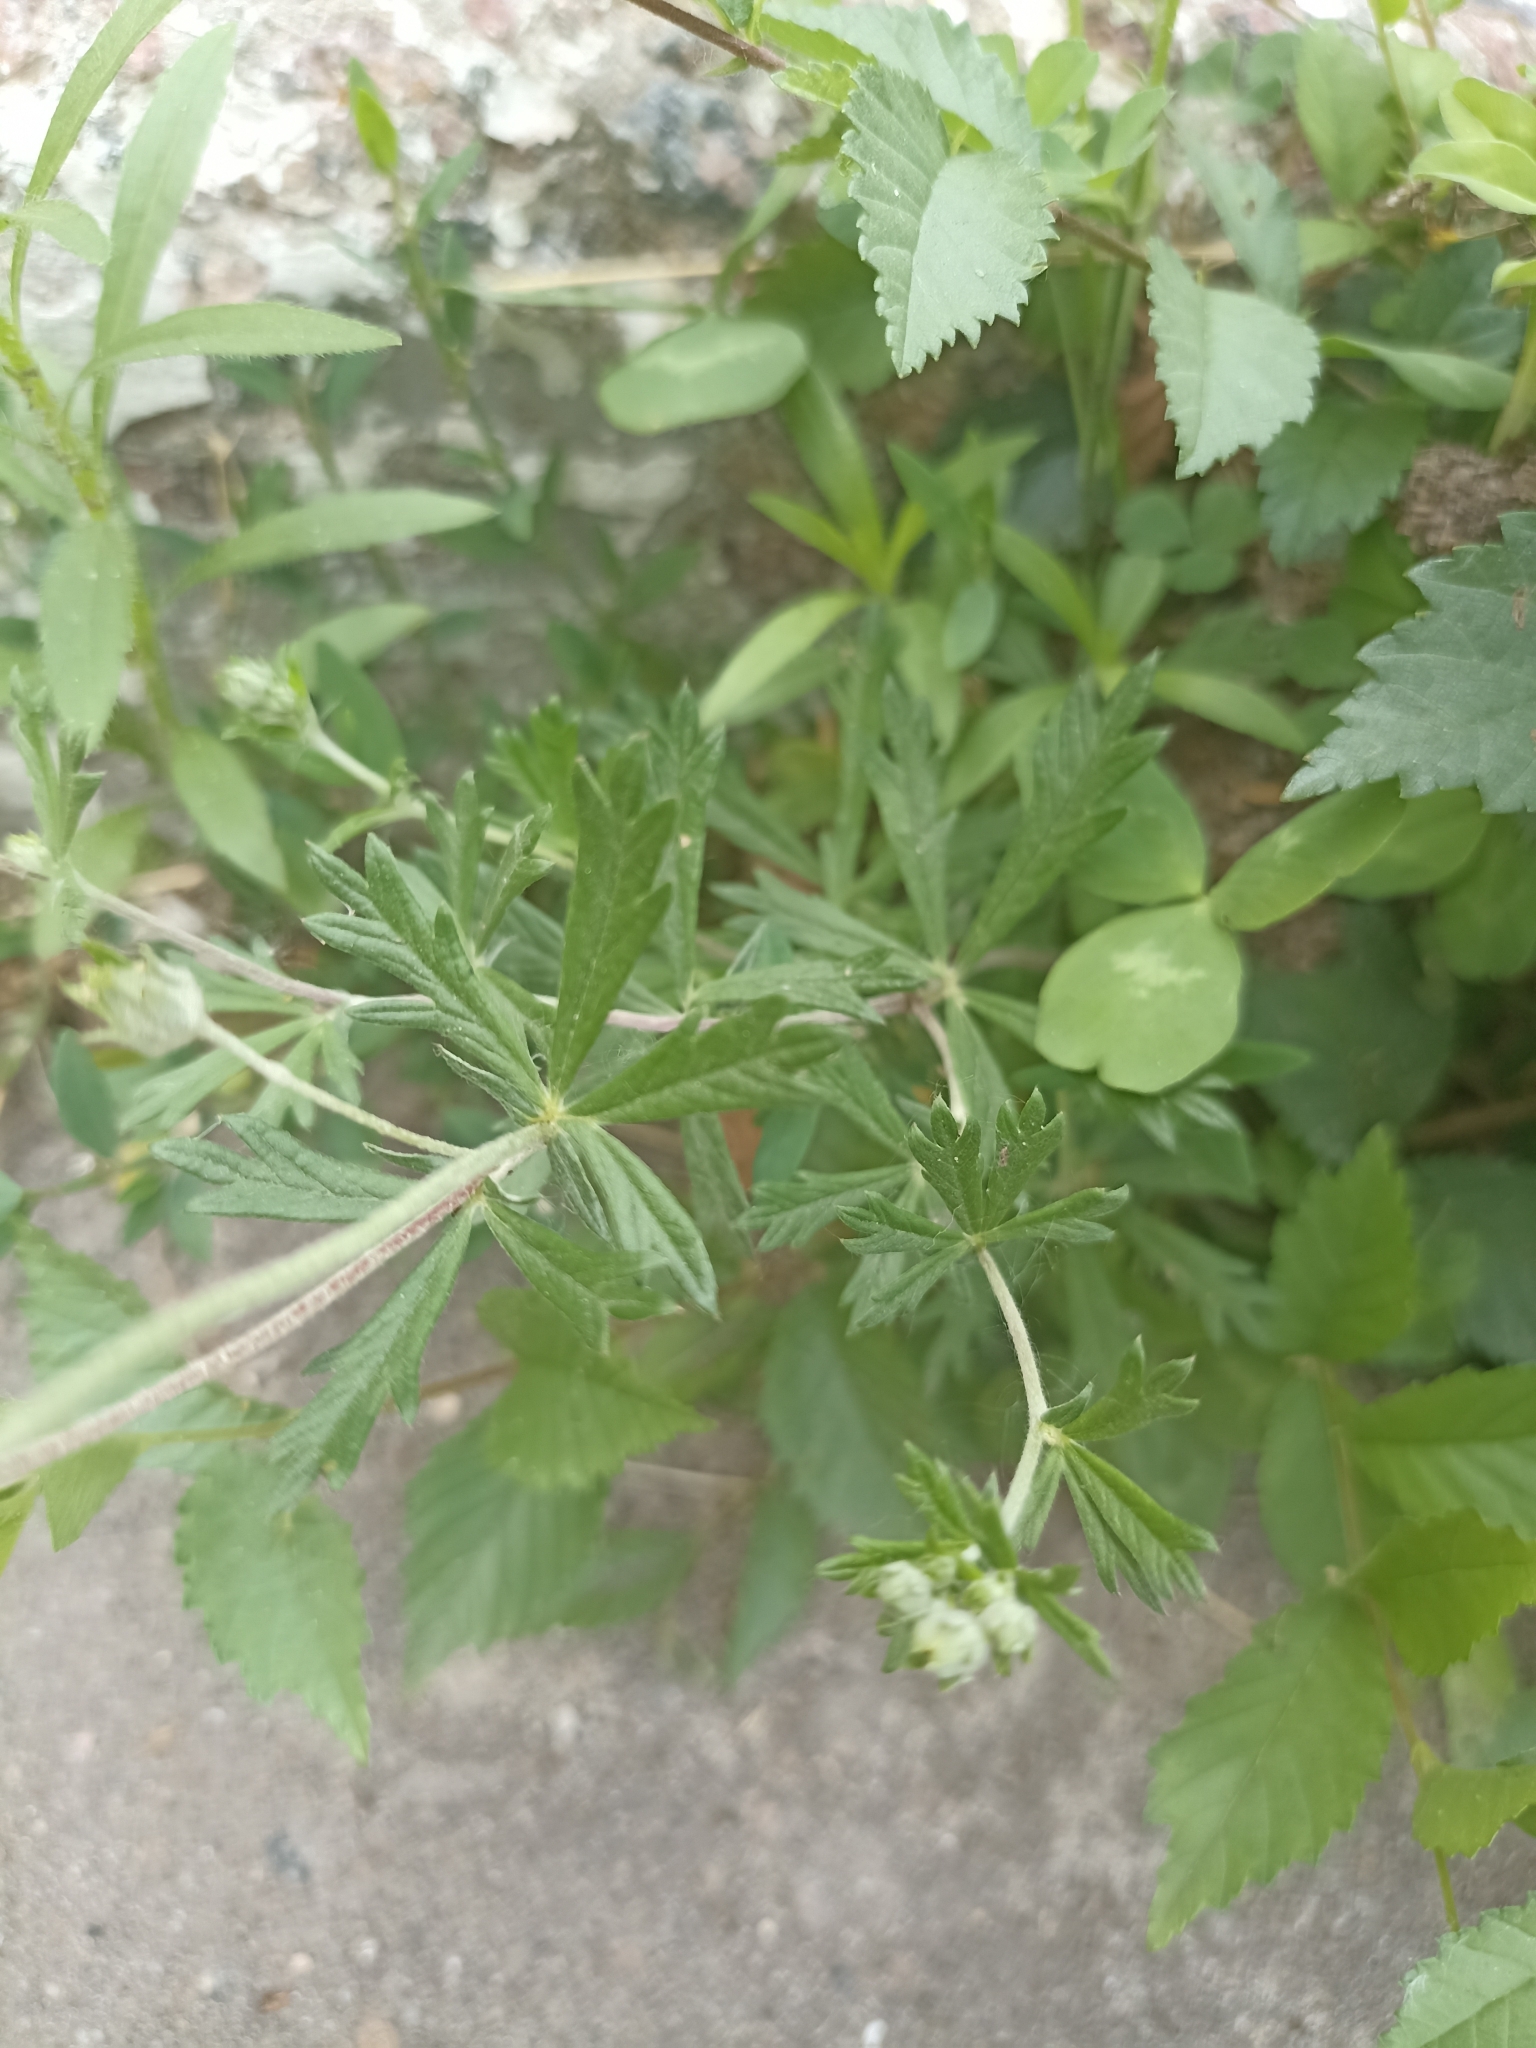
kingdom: Plantae
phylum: Tracheophyta
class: Magnoliopsida
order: Rosales
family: Rosaceae
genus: Potentilla
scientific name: Potentilla argentea
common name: Hoary cinquefoil
